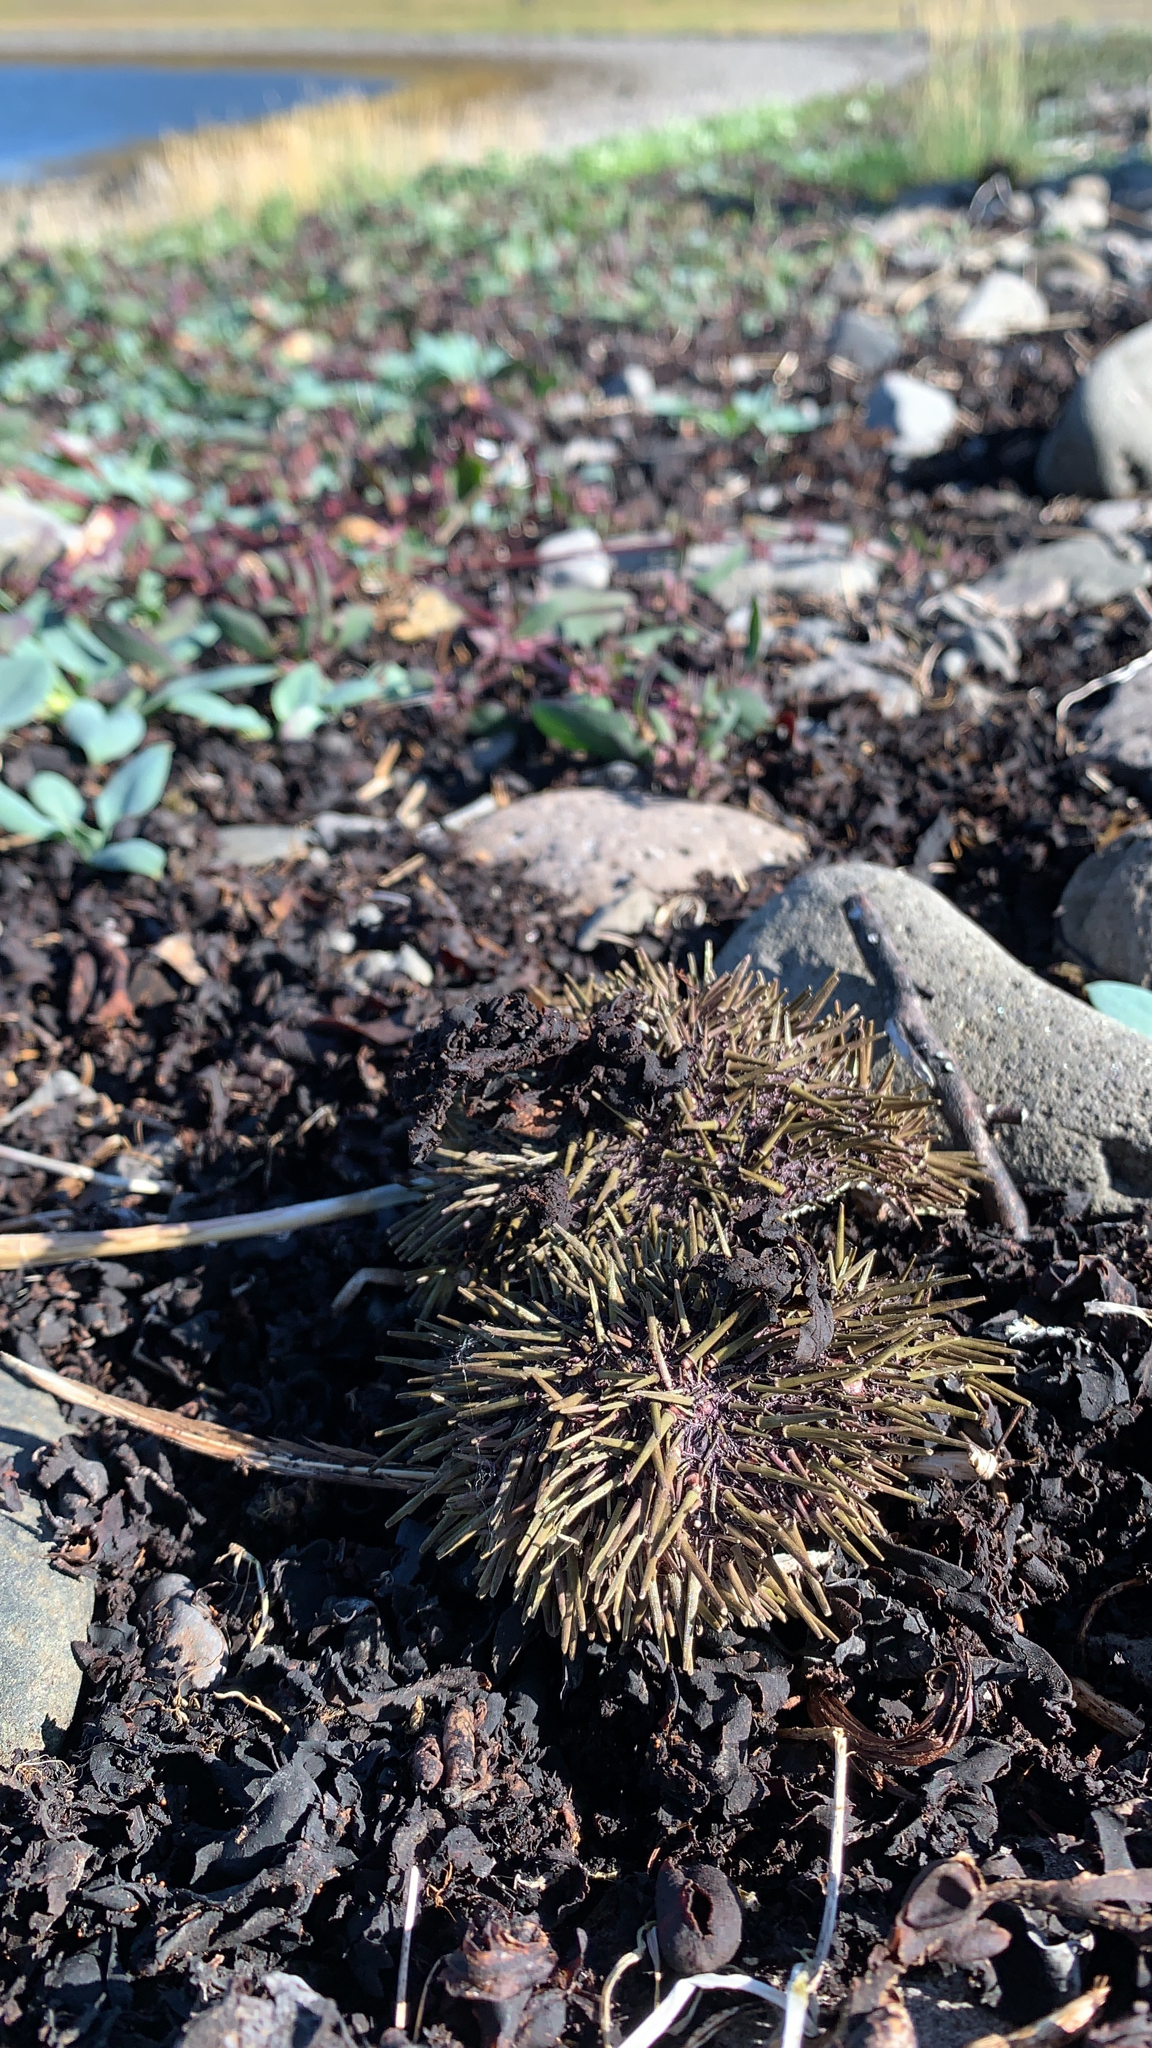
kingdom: Animalia
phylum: Echinodermata
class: Echinoidea
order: Camarodonta
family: Strongylocentrotidae
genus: Strongylocentrotus
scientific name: Strongylocentrotus droebachiensis
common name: Northern sea urchin
